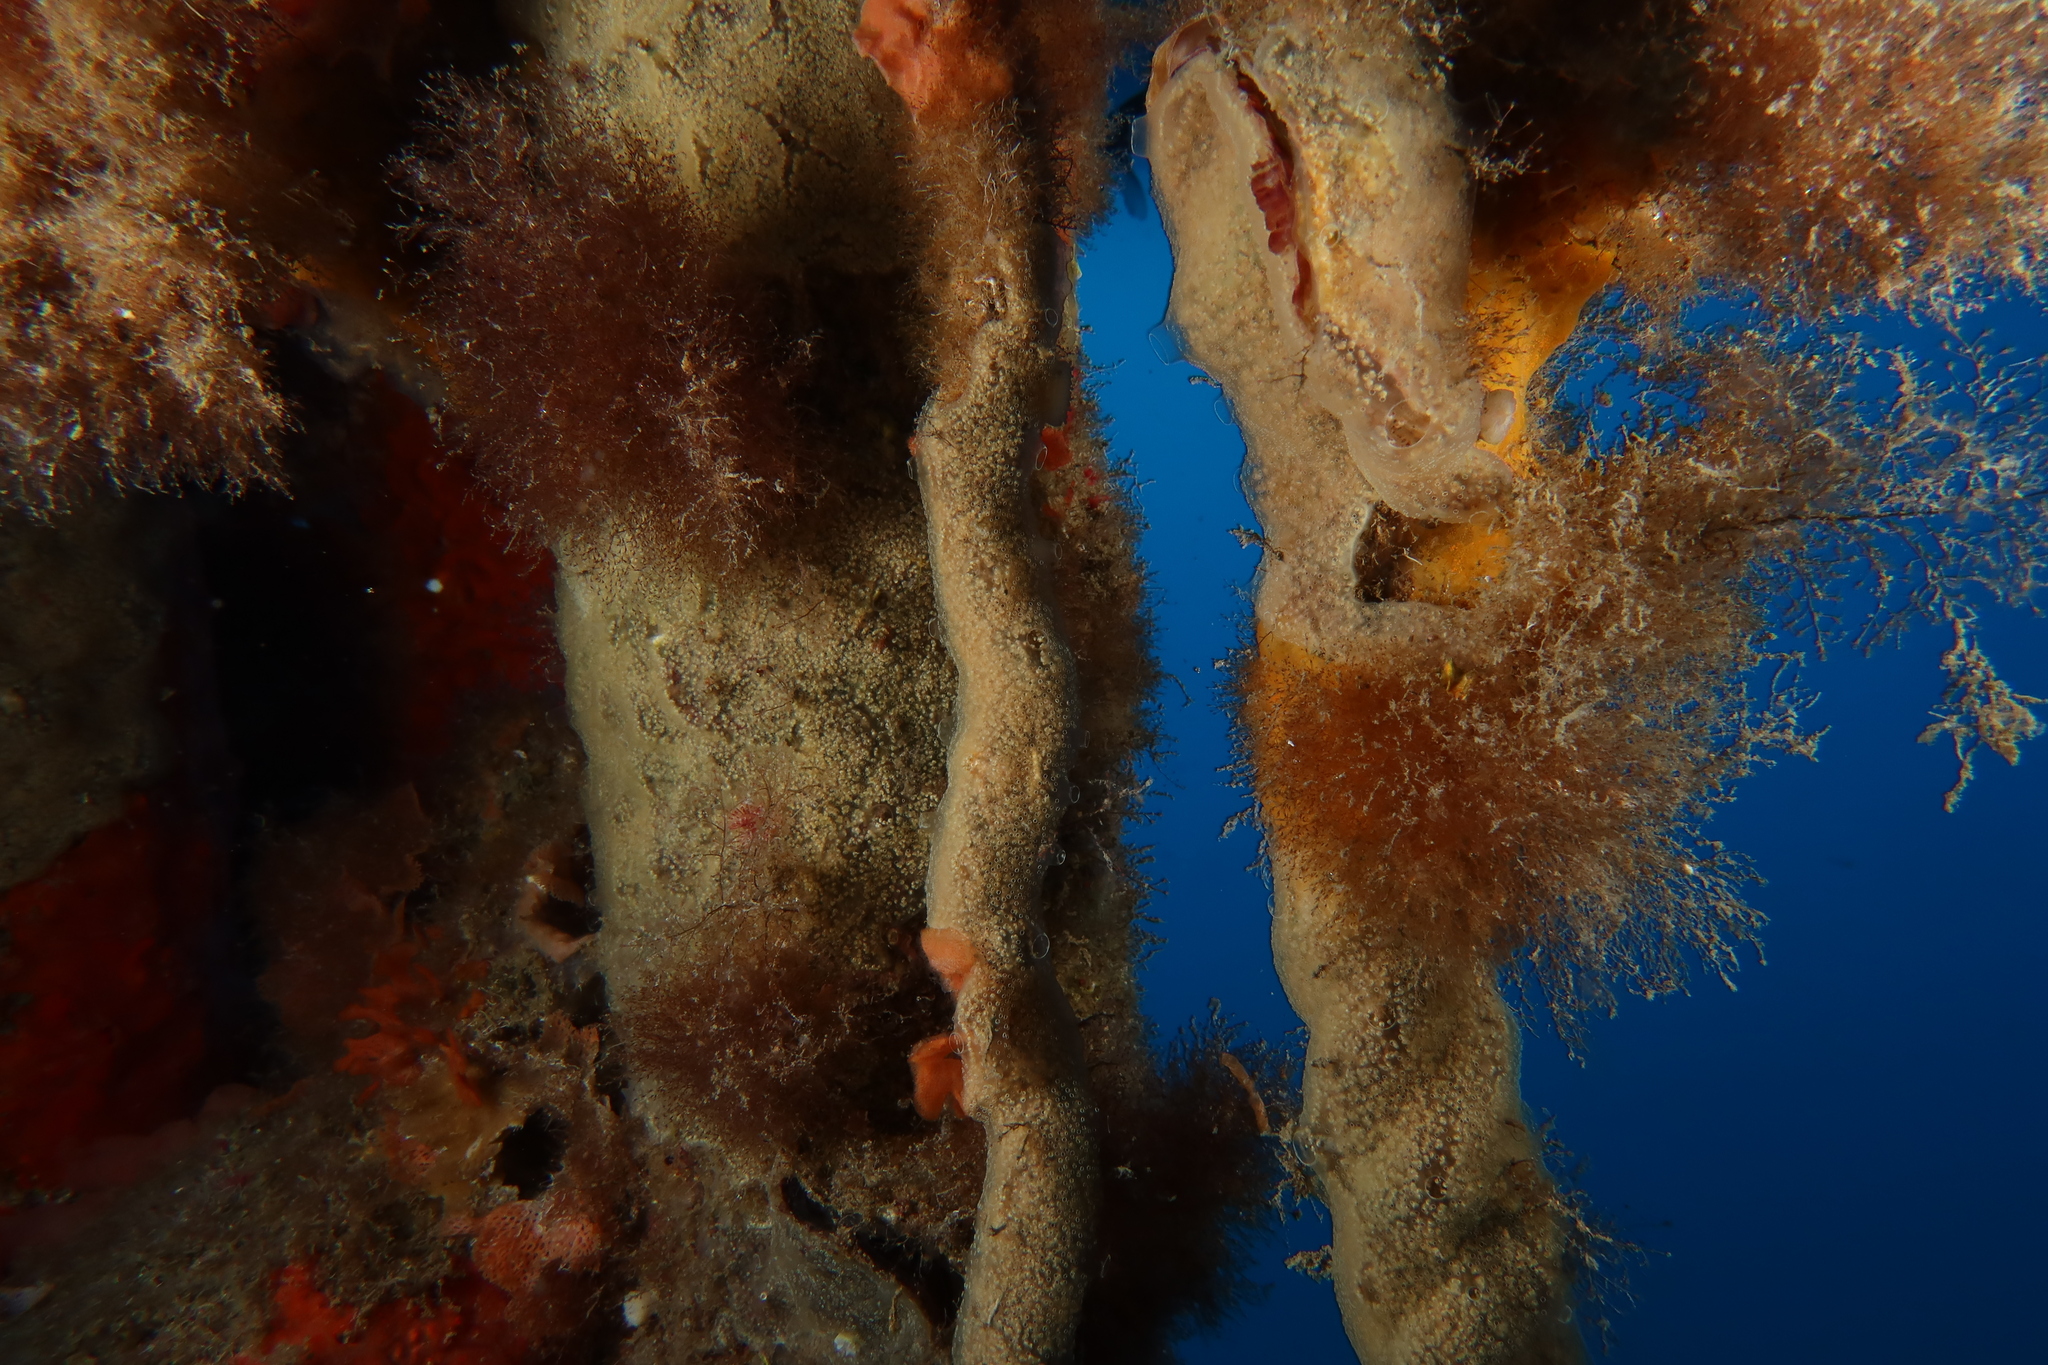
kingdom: Animalia
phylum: Chordata
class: Ascidiacea
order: Aplousobranchia
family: Didemnidae
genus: Diplosoma
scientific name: Diplosoma spongiforme
